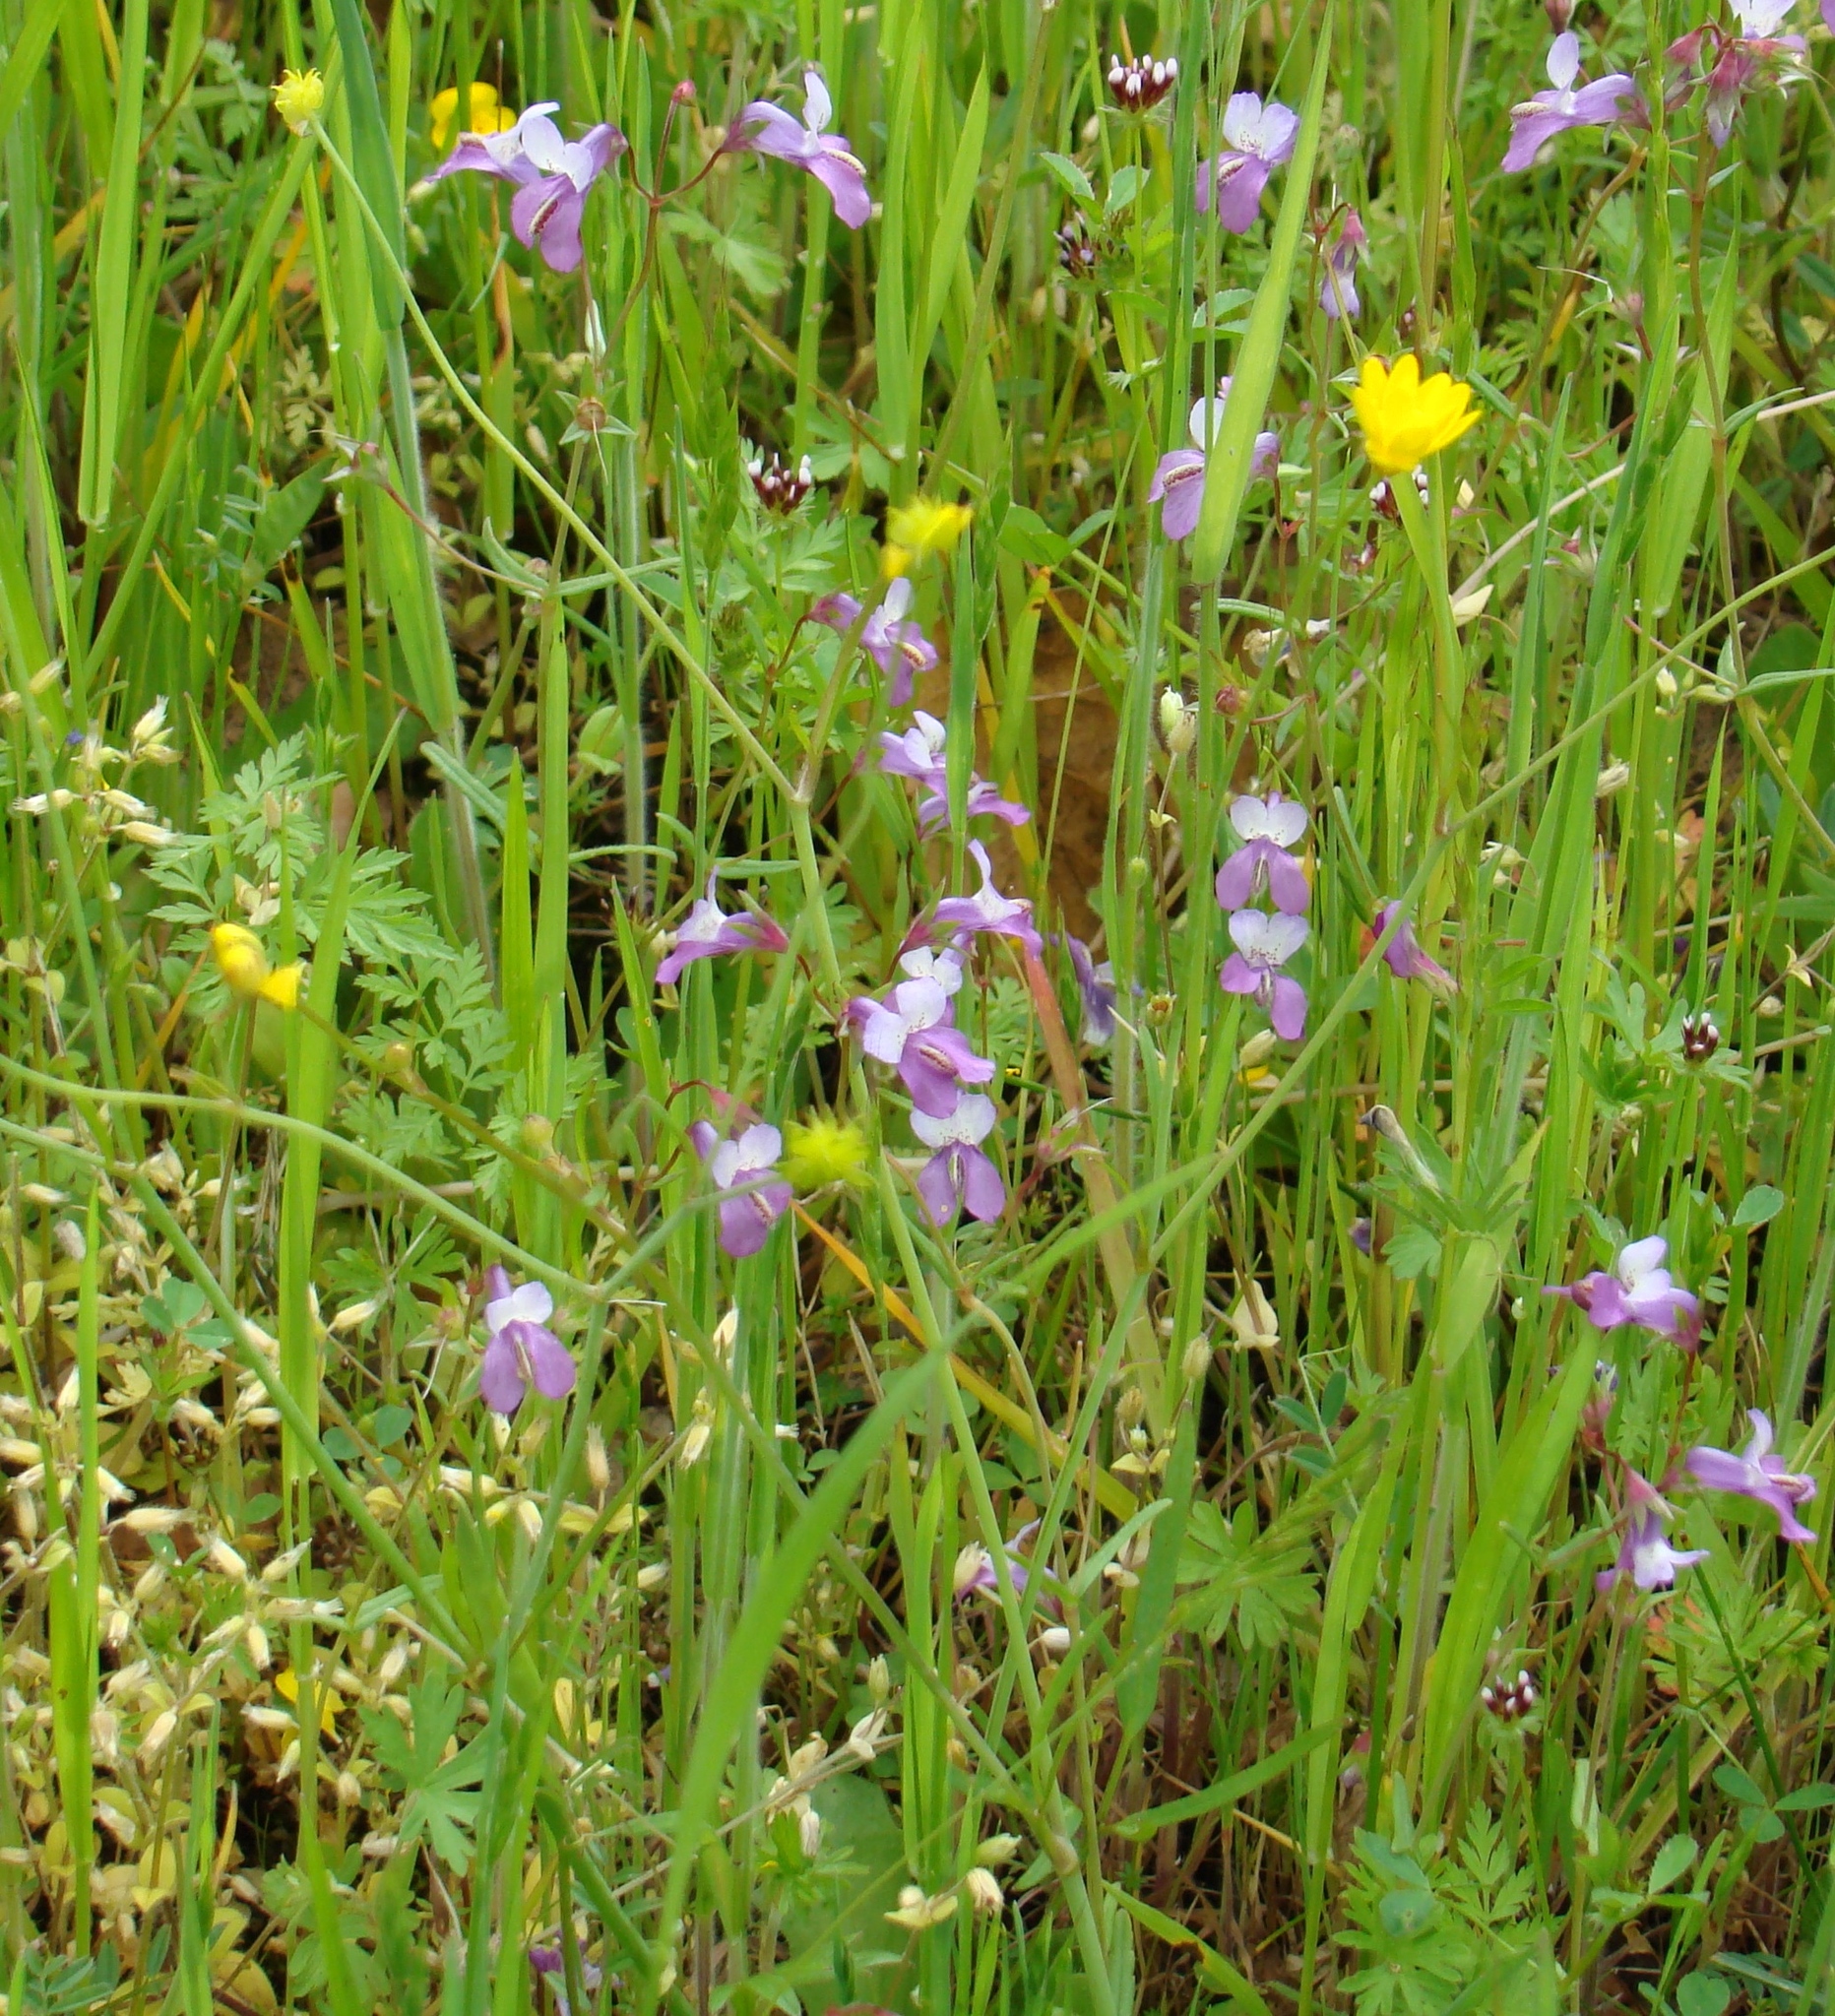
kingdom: Plantae
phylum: Tracheophyta
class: Magnoliopsida
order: Lamiales
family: Plantaginaceae
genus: Collinsia
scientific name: Collinsia sparsiflora
